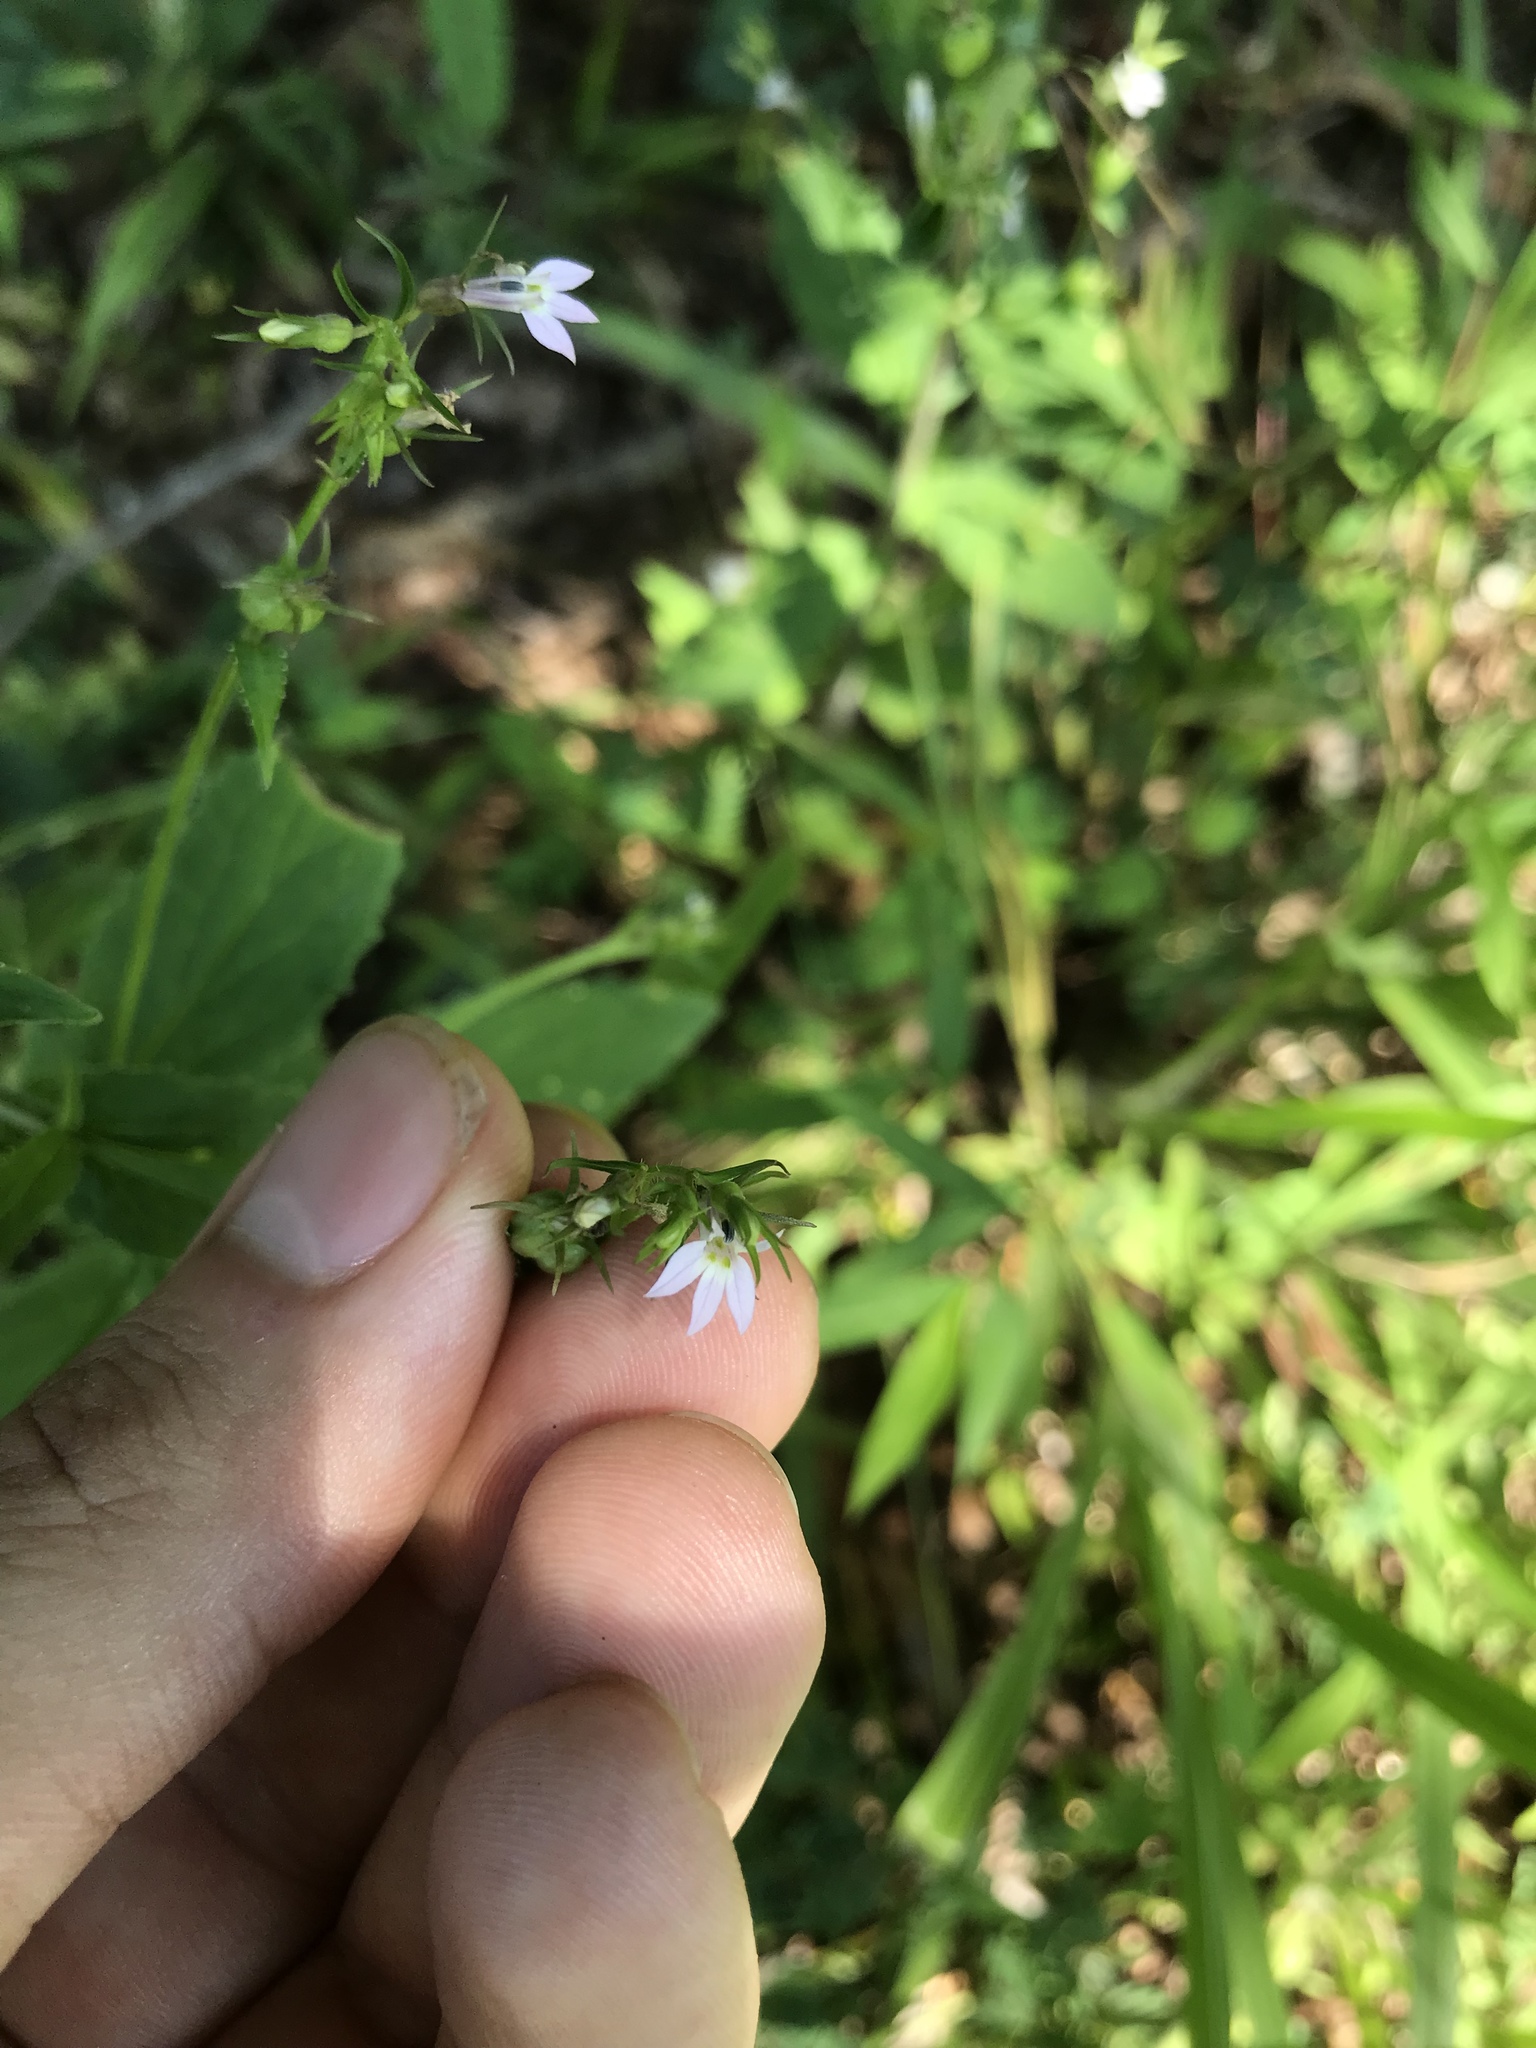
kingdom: Plantae
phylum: Tracheophyta
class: Magnoliopsida
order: Asterales
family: Campanulaceae
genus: Lobelia
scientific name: Lobelia inflata
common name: Indian tobacco
